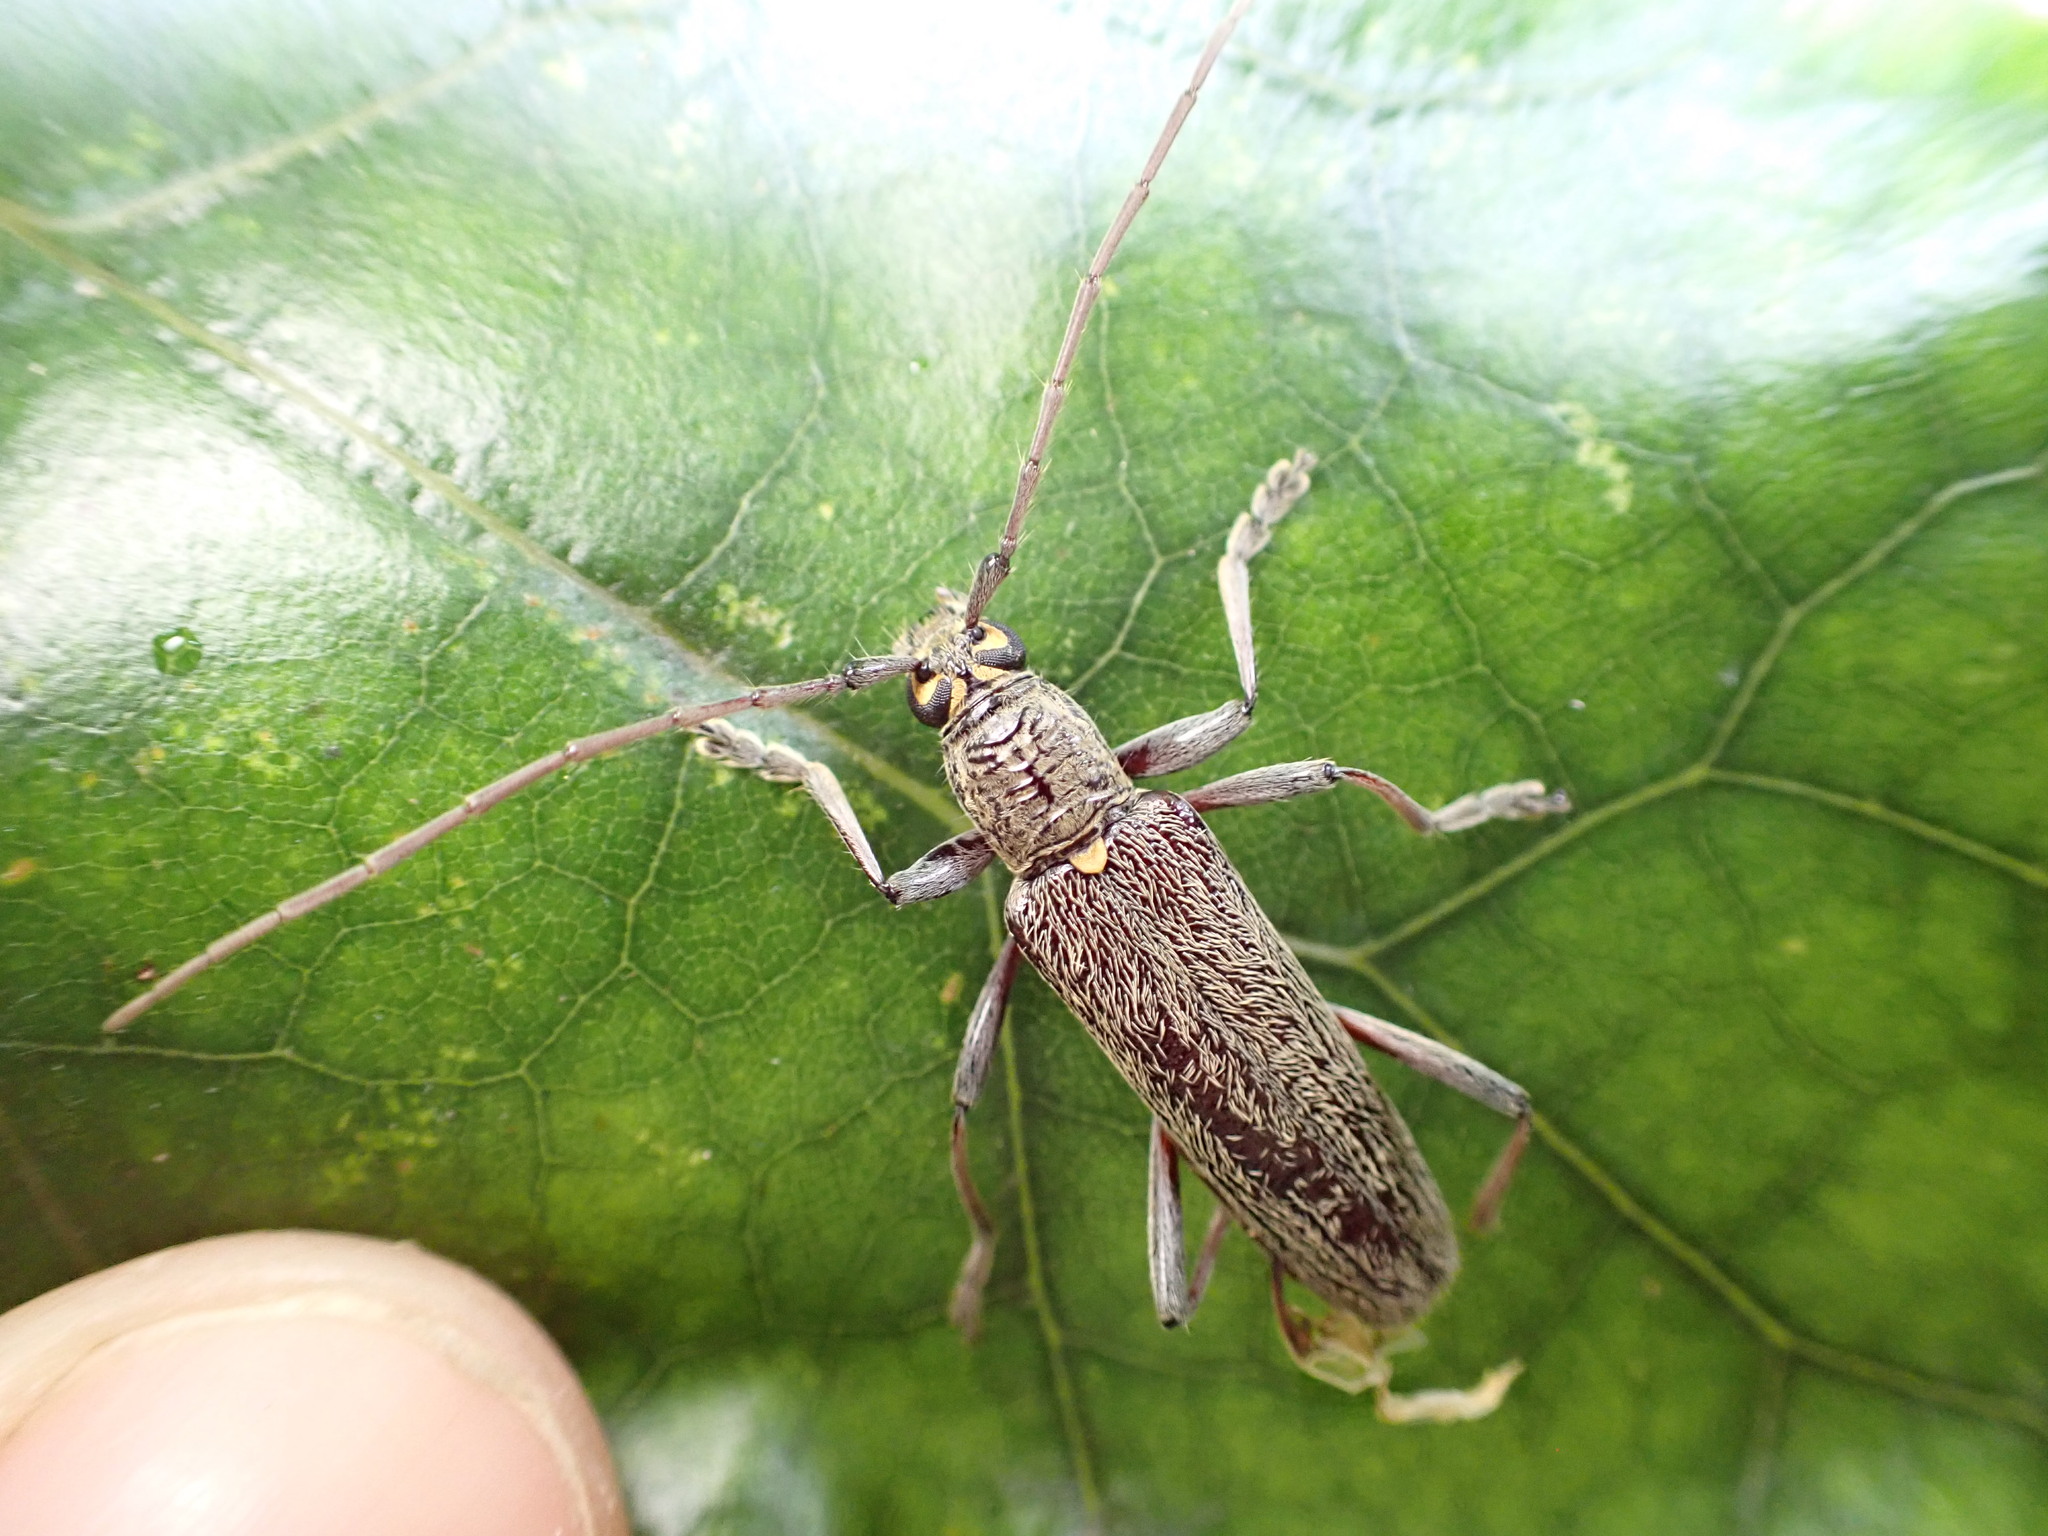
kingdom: Animalia
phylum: Arthropoda
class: Insecta
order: Coleoptera
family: Cerambycidae
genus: Oemona
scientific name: Oemona hirta
